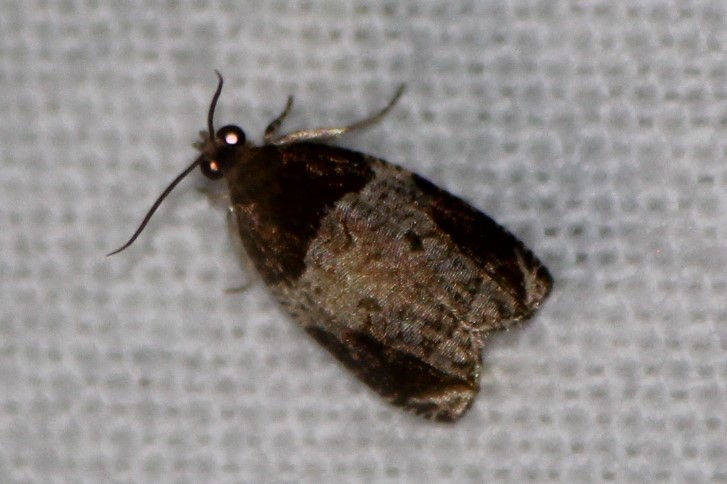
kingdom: Animalia
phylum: Arthropoda
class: Insecta
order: Lepidoptera
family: Tortricidae
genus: Olethreutes
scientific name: Olethreutes ferriferana
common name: Hydrangea leaftier moth
